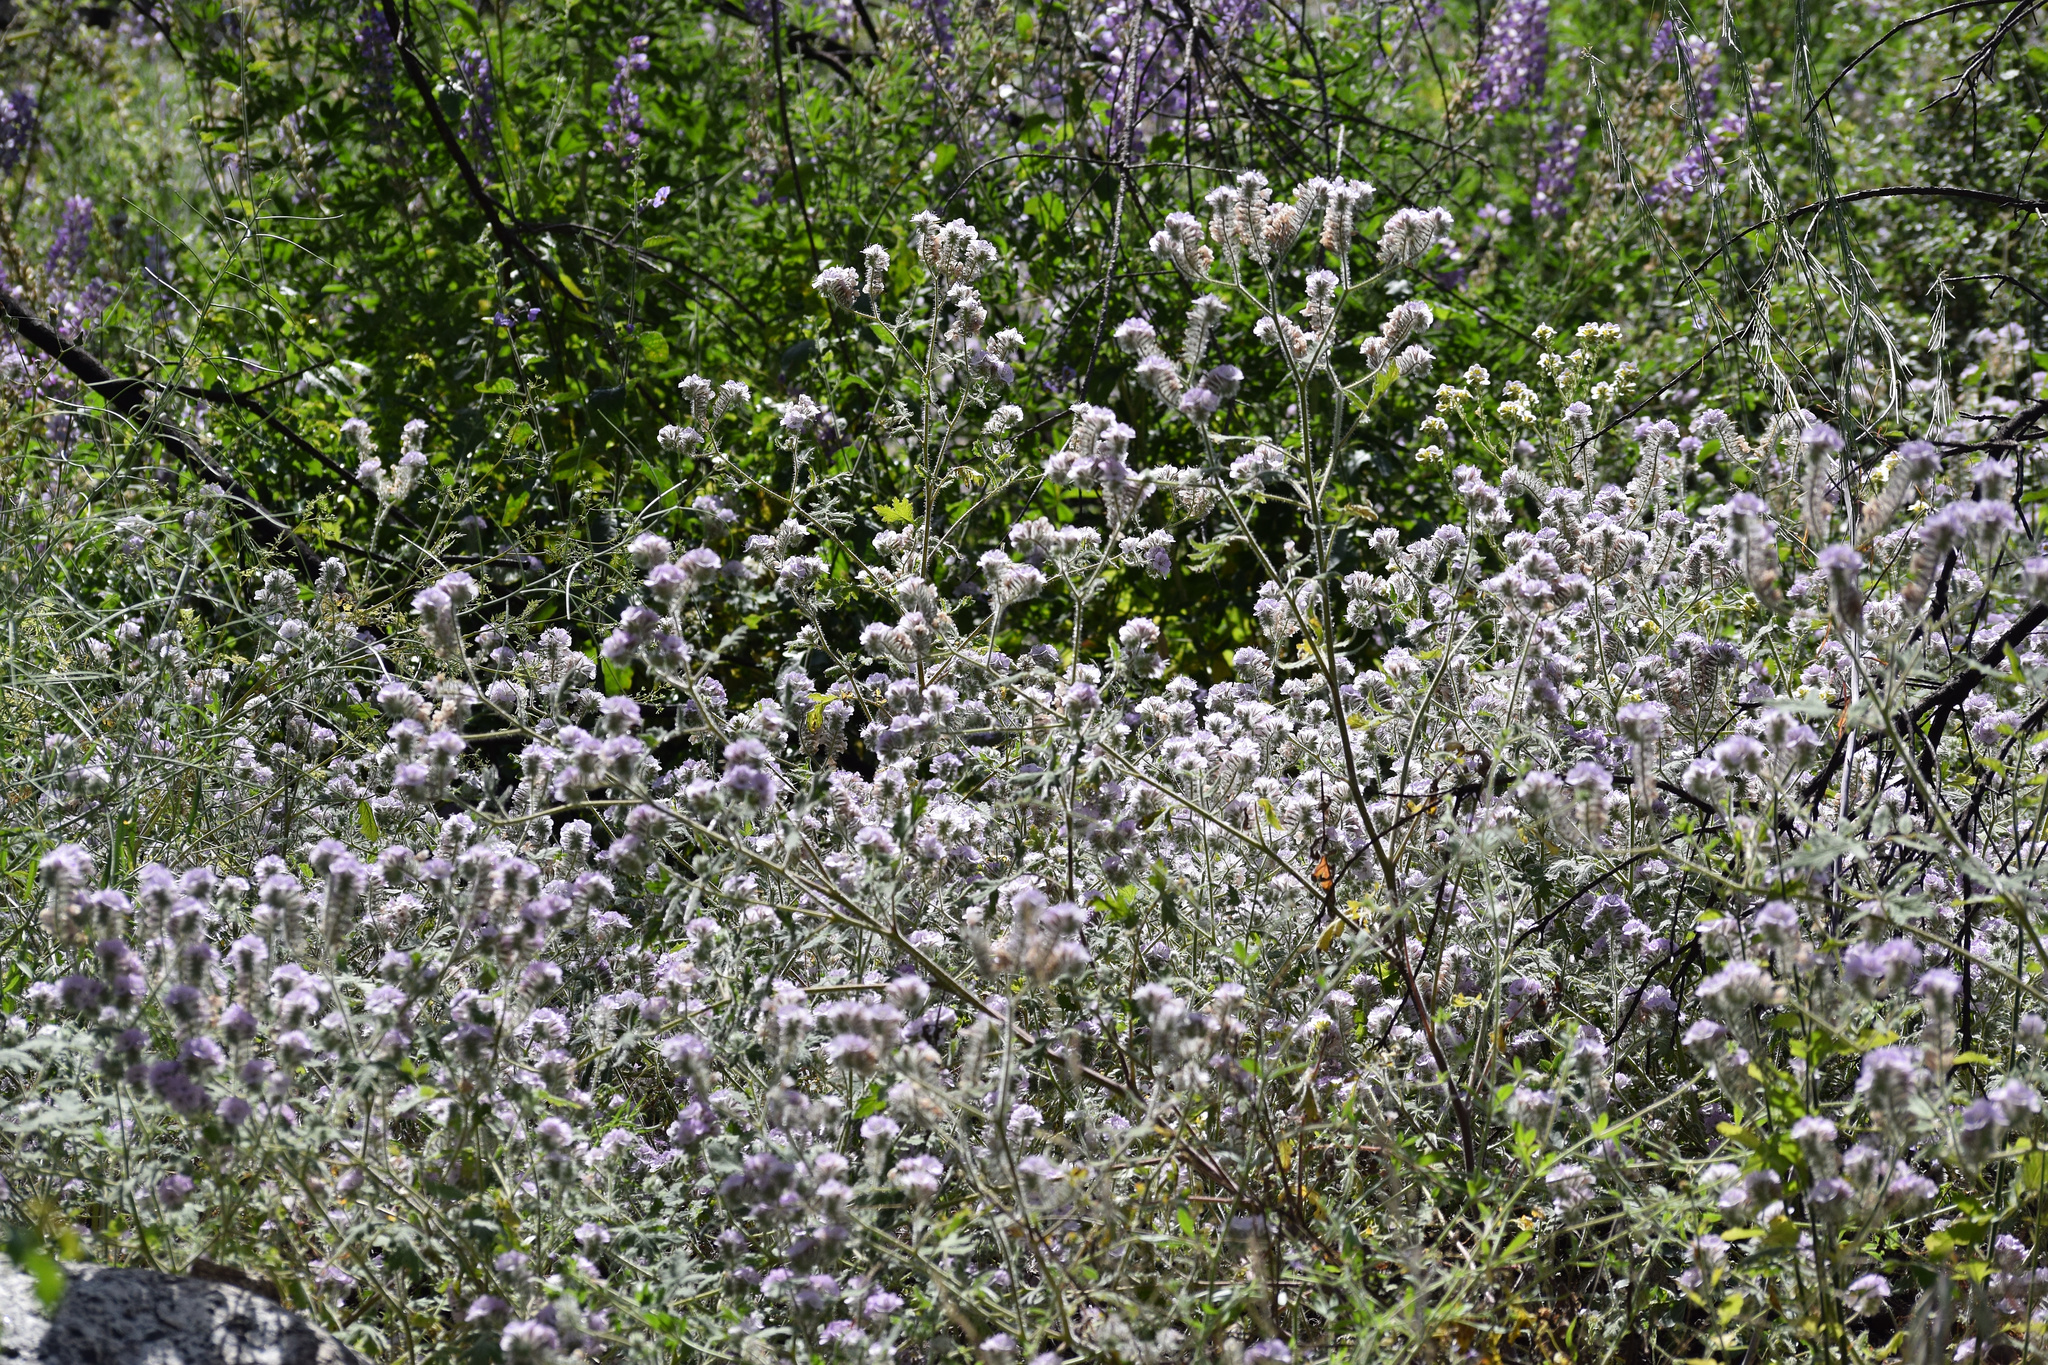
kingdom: Plantae
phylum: Tracheophyta
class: Magnoliopsida
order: Boraginales
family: Hydrophyllaceae
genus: Phacelia
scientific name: Phacelia cicutaria
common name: Caterpillar phacelia
